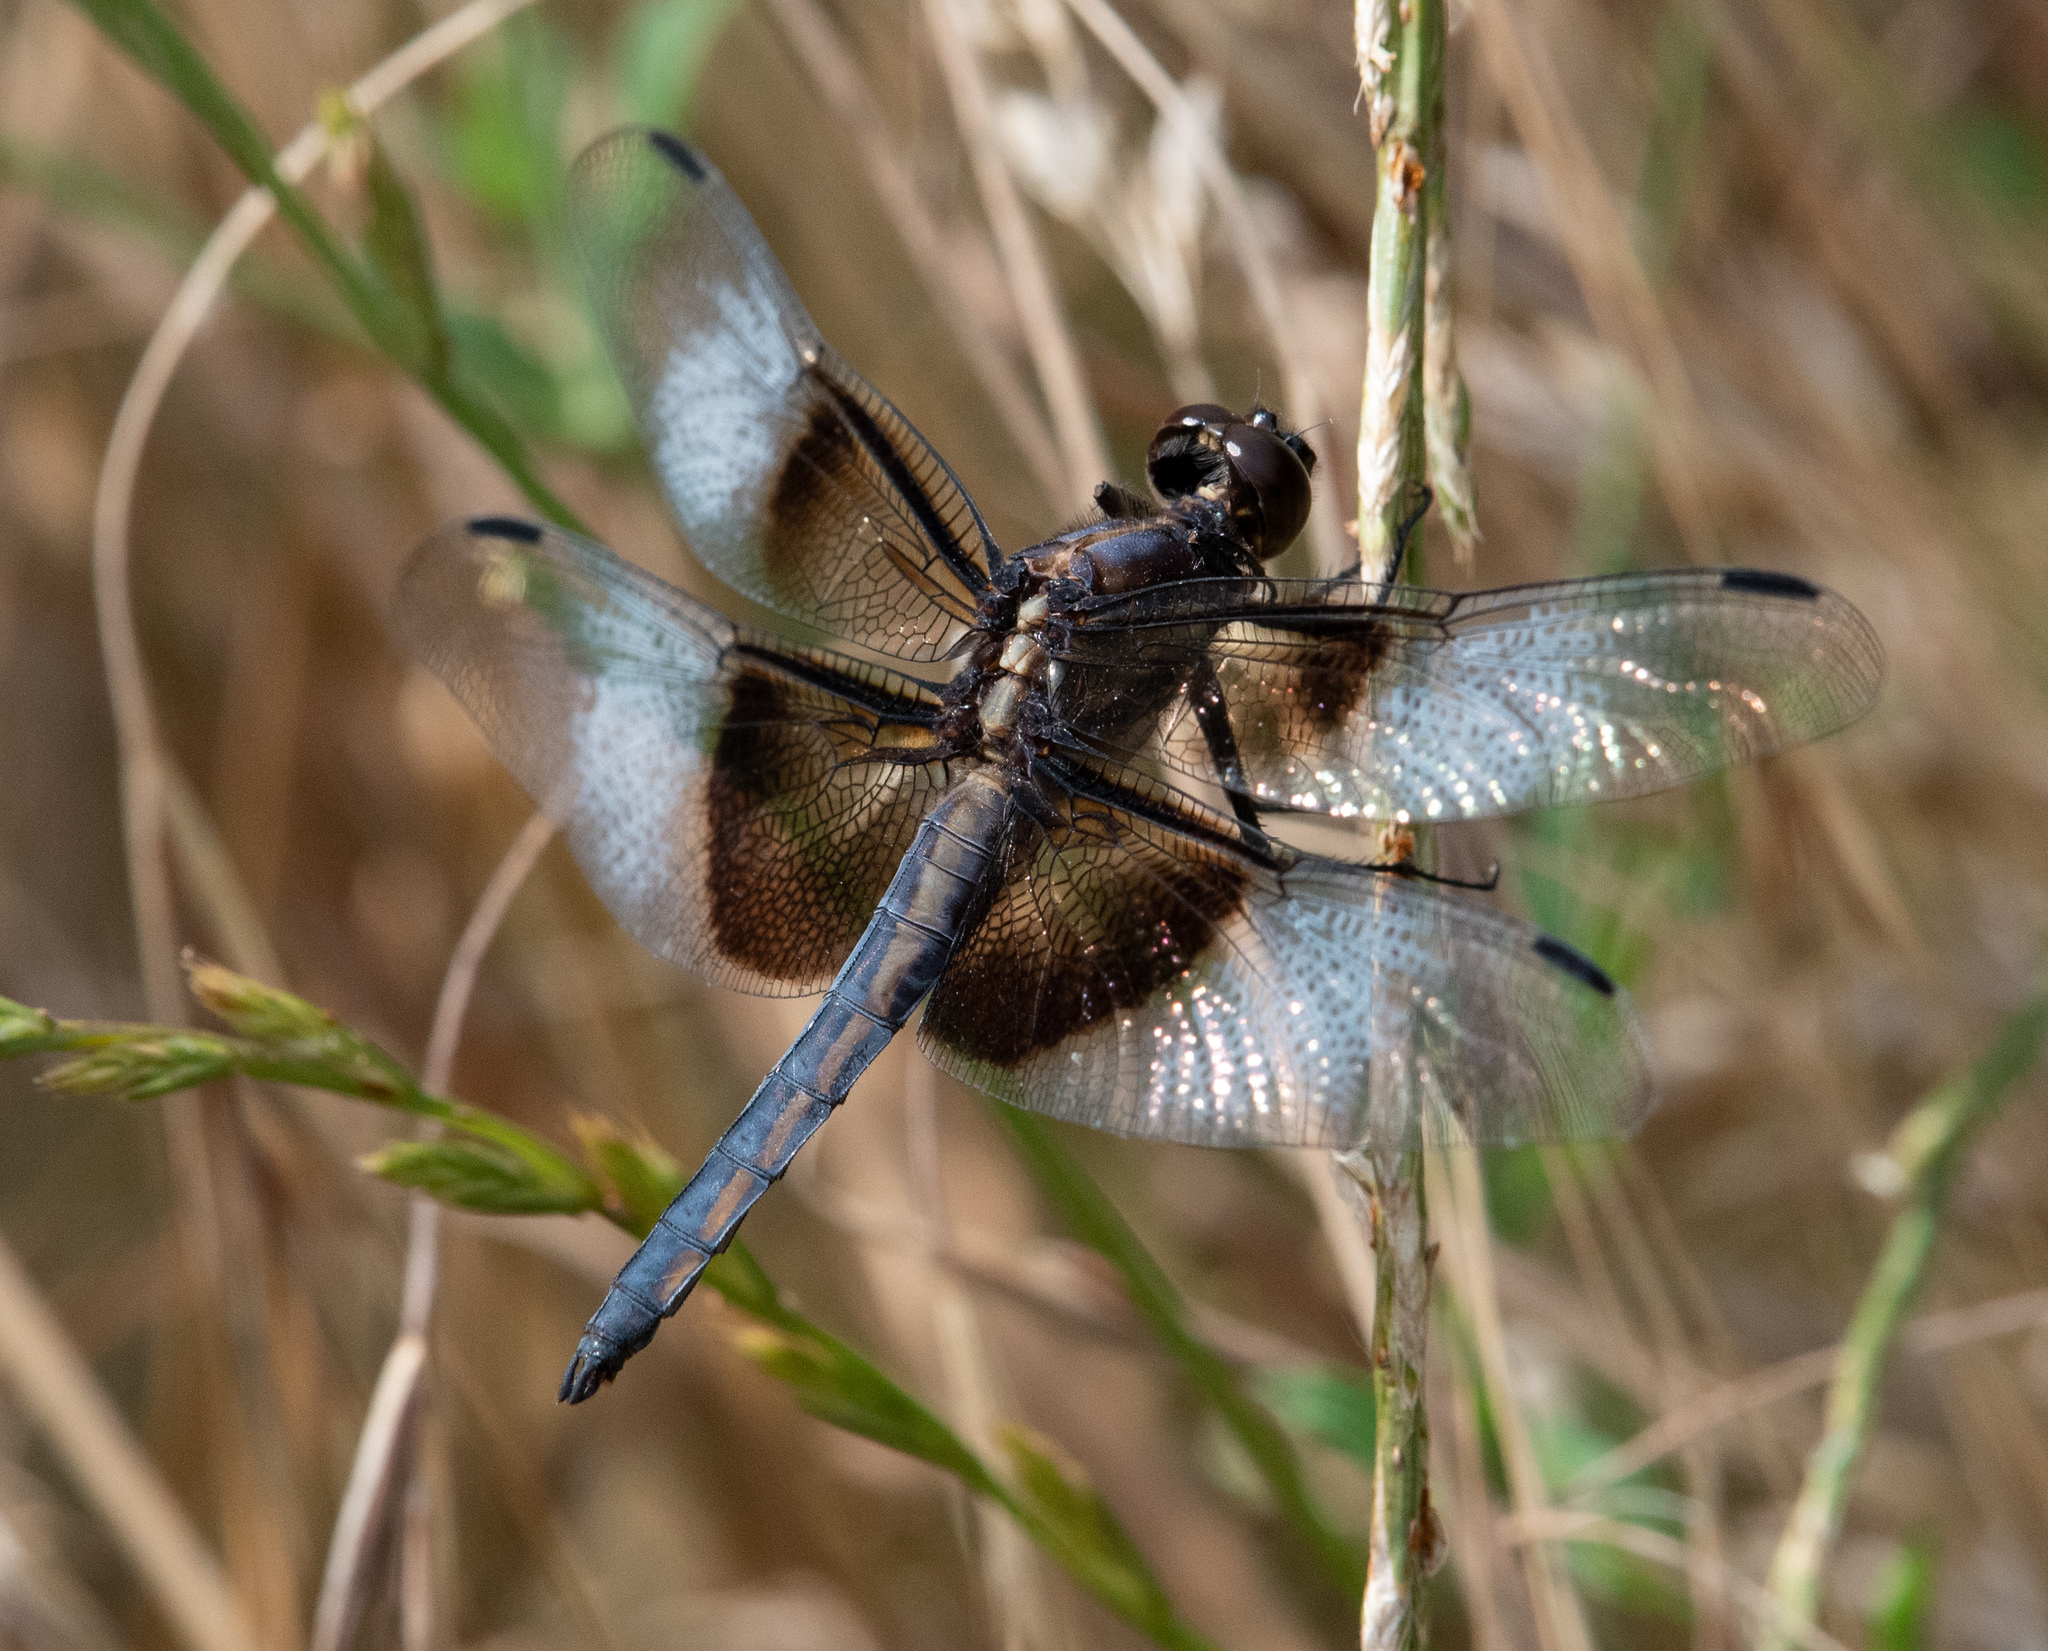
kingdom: Animalia
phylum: Arthropoda
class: Insecta
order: Odonata
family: Libellulidae
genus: Libellula
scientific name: Libellula luctuosa
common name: Widow skimmer
